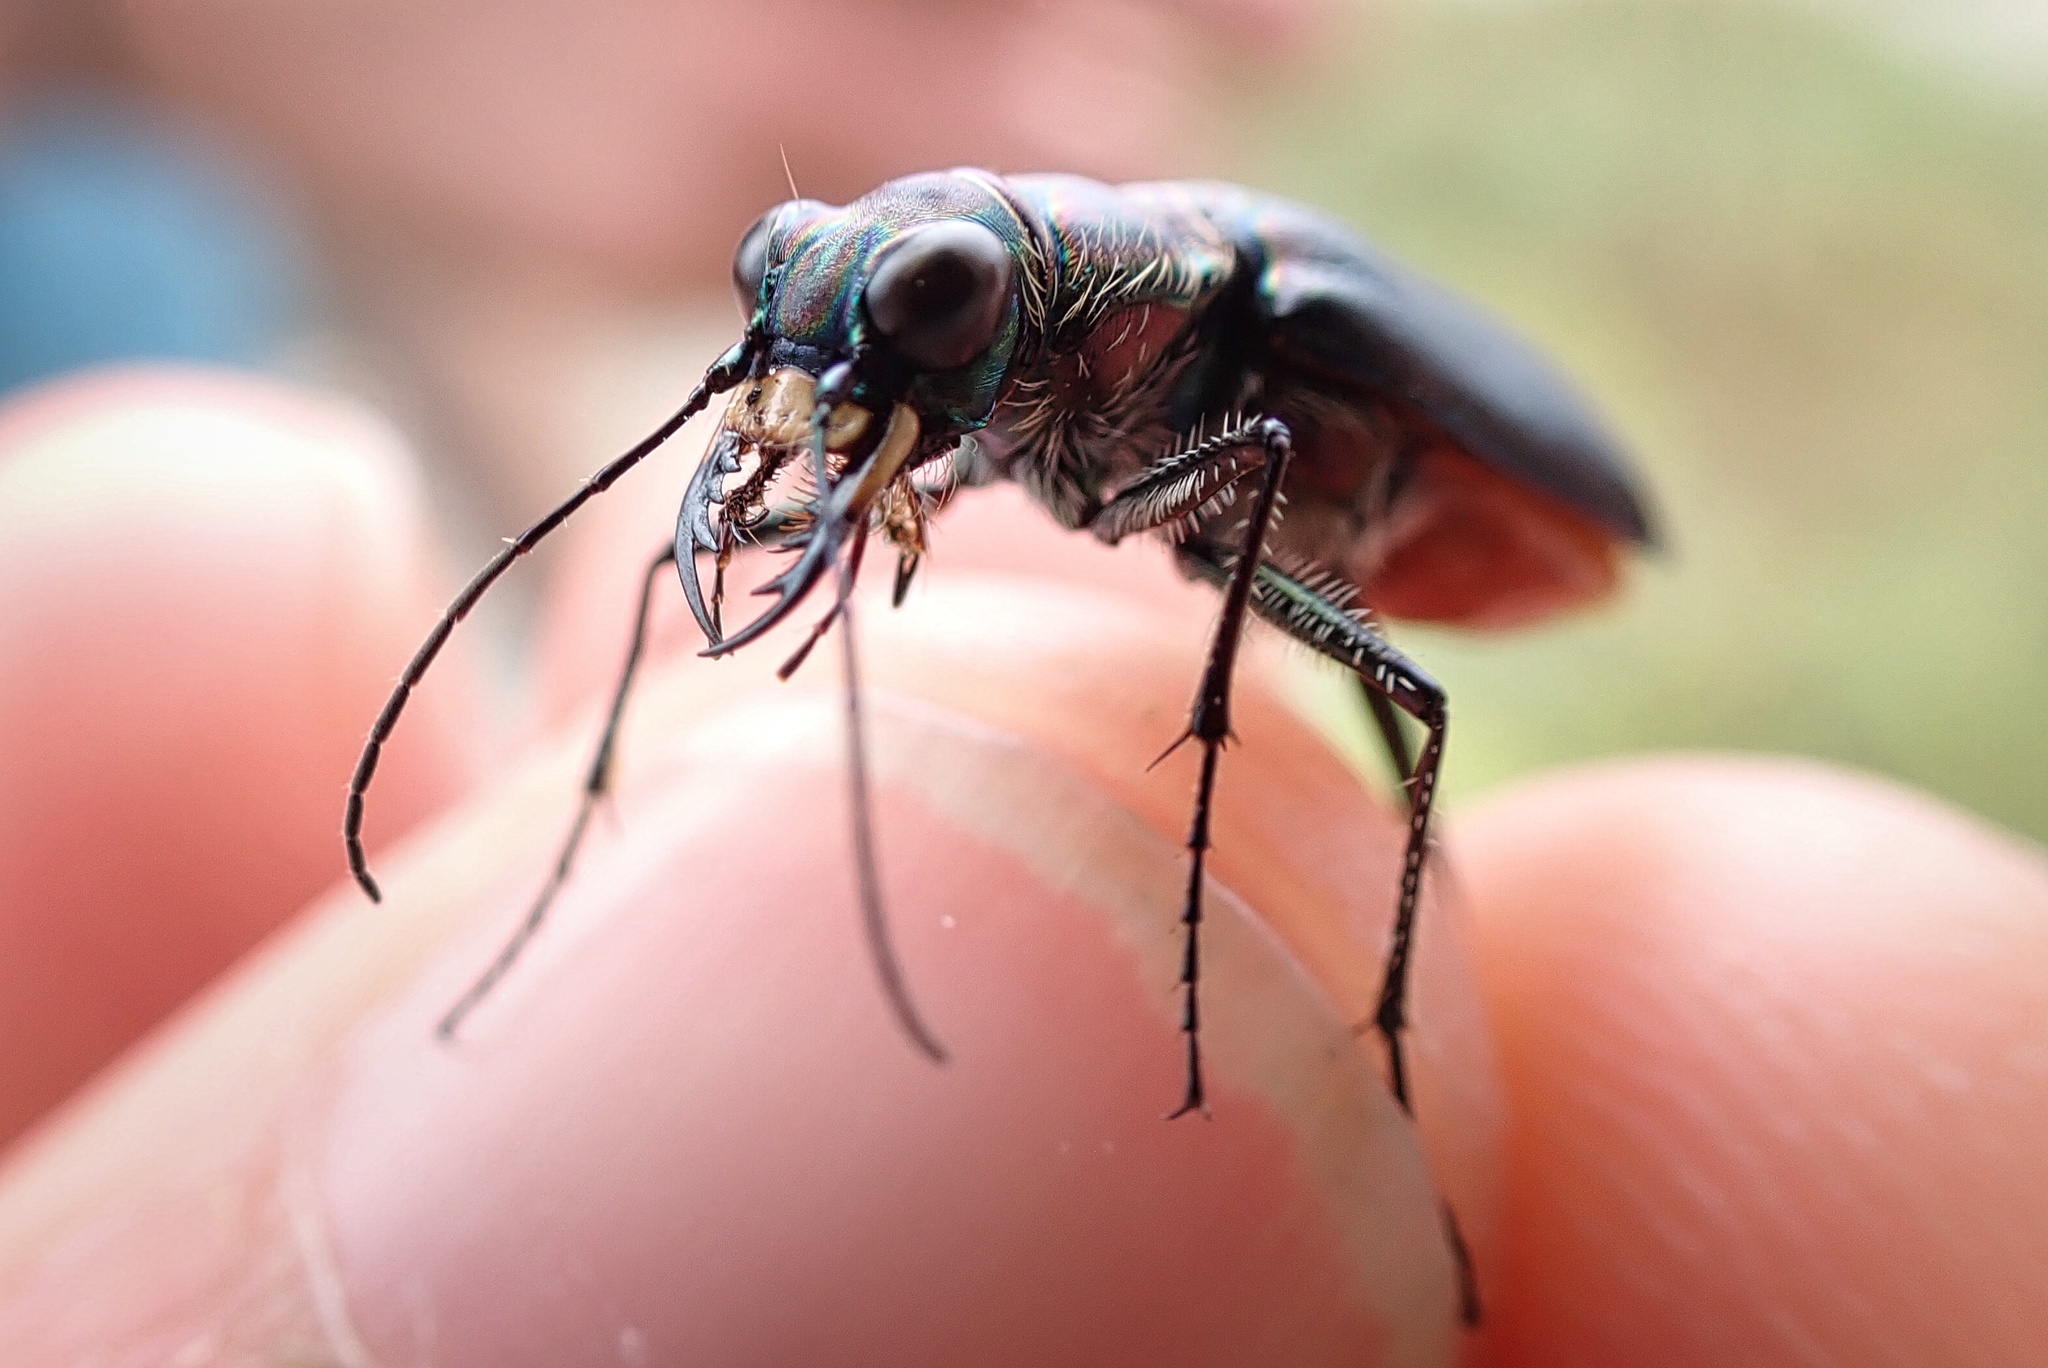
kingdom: Animalia
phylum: Arthropoda
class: Insecta
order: Coleoptera
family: Carabidae
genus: Cicindela
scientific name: Cicindela hemorrhagica
